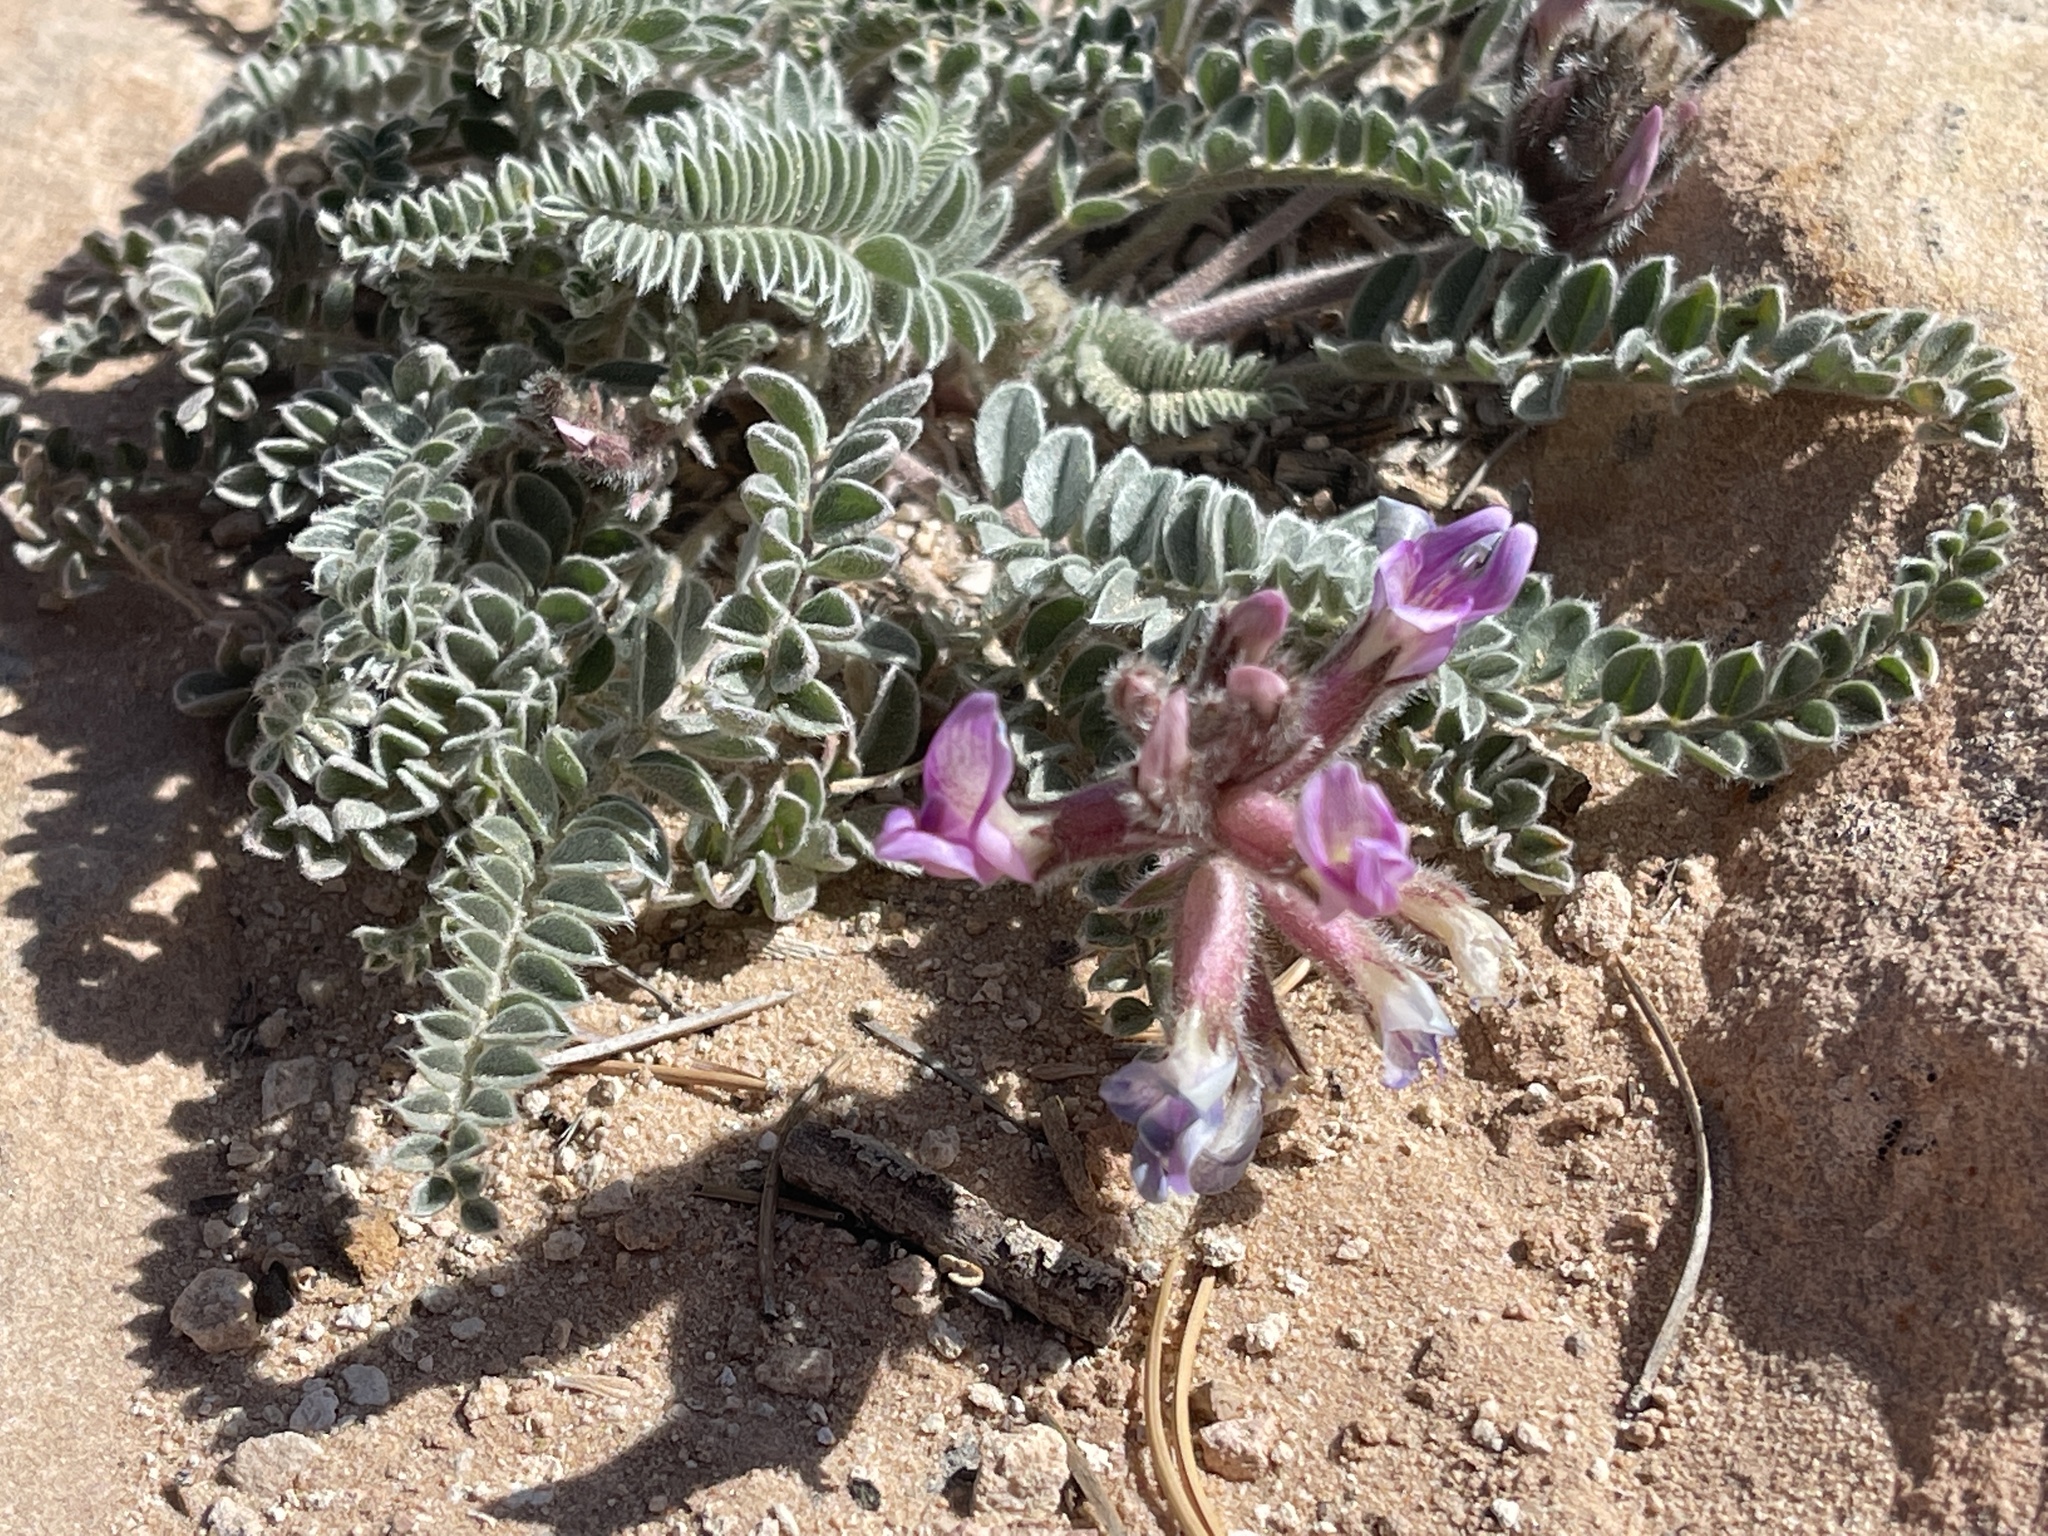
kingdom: Plantae
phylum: Tracheophyta
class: Magnoliopsida
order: Fabales
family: Fabaceae
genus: Astragalus
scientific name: Astragalus mollissimus
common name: Woolly locoweed
